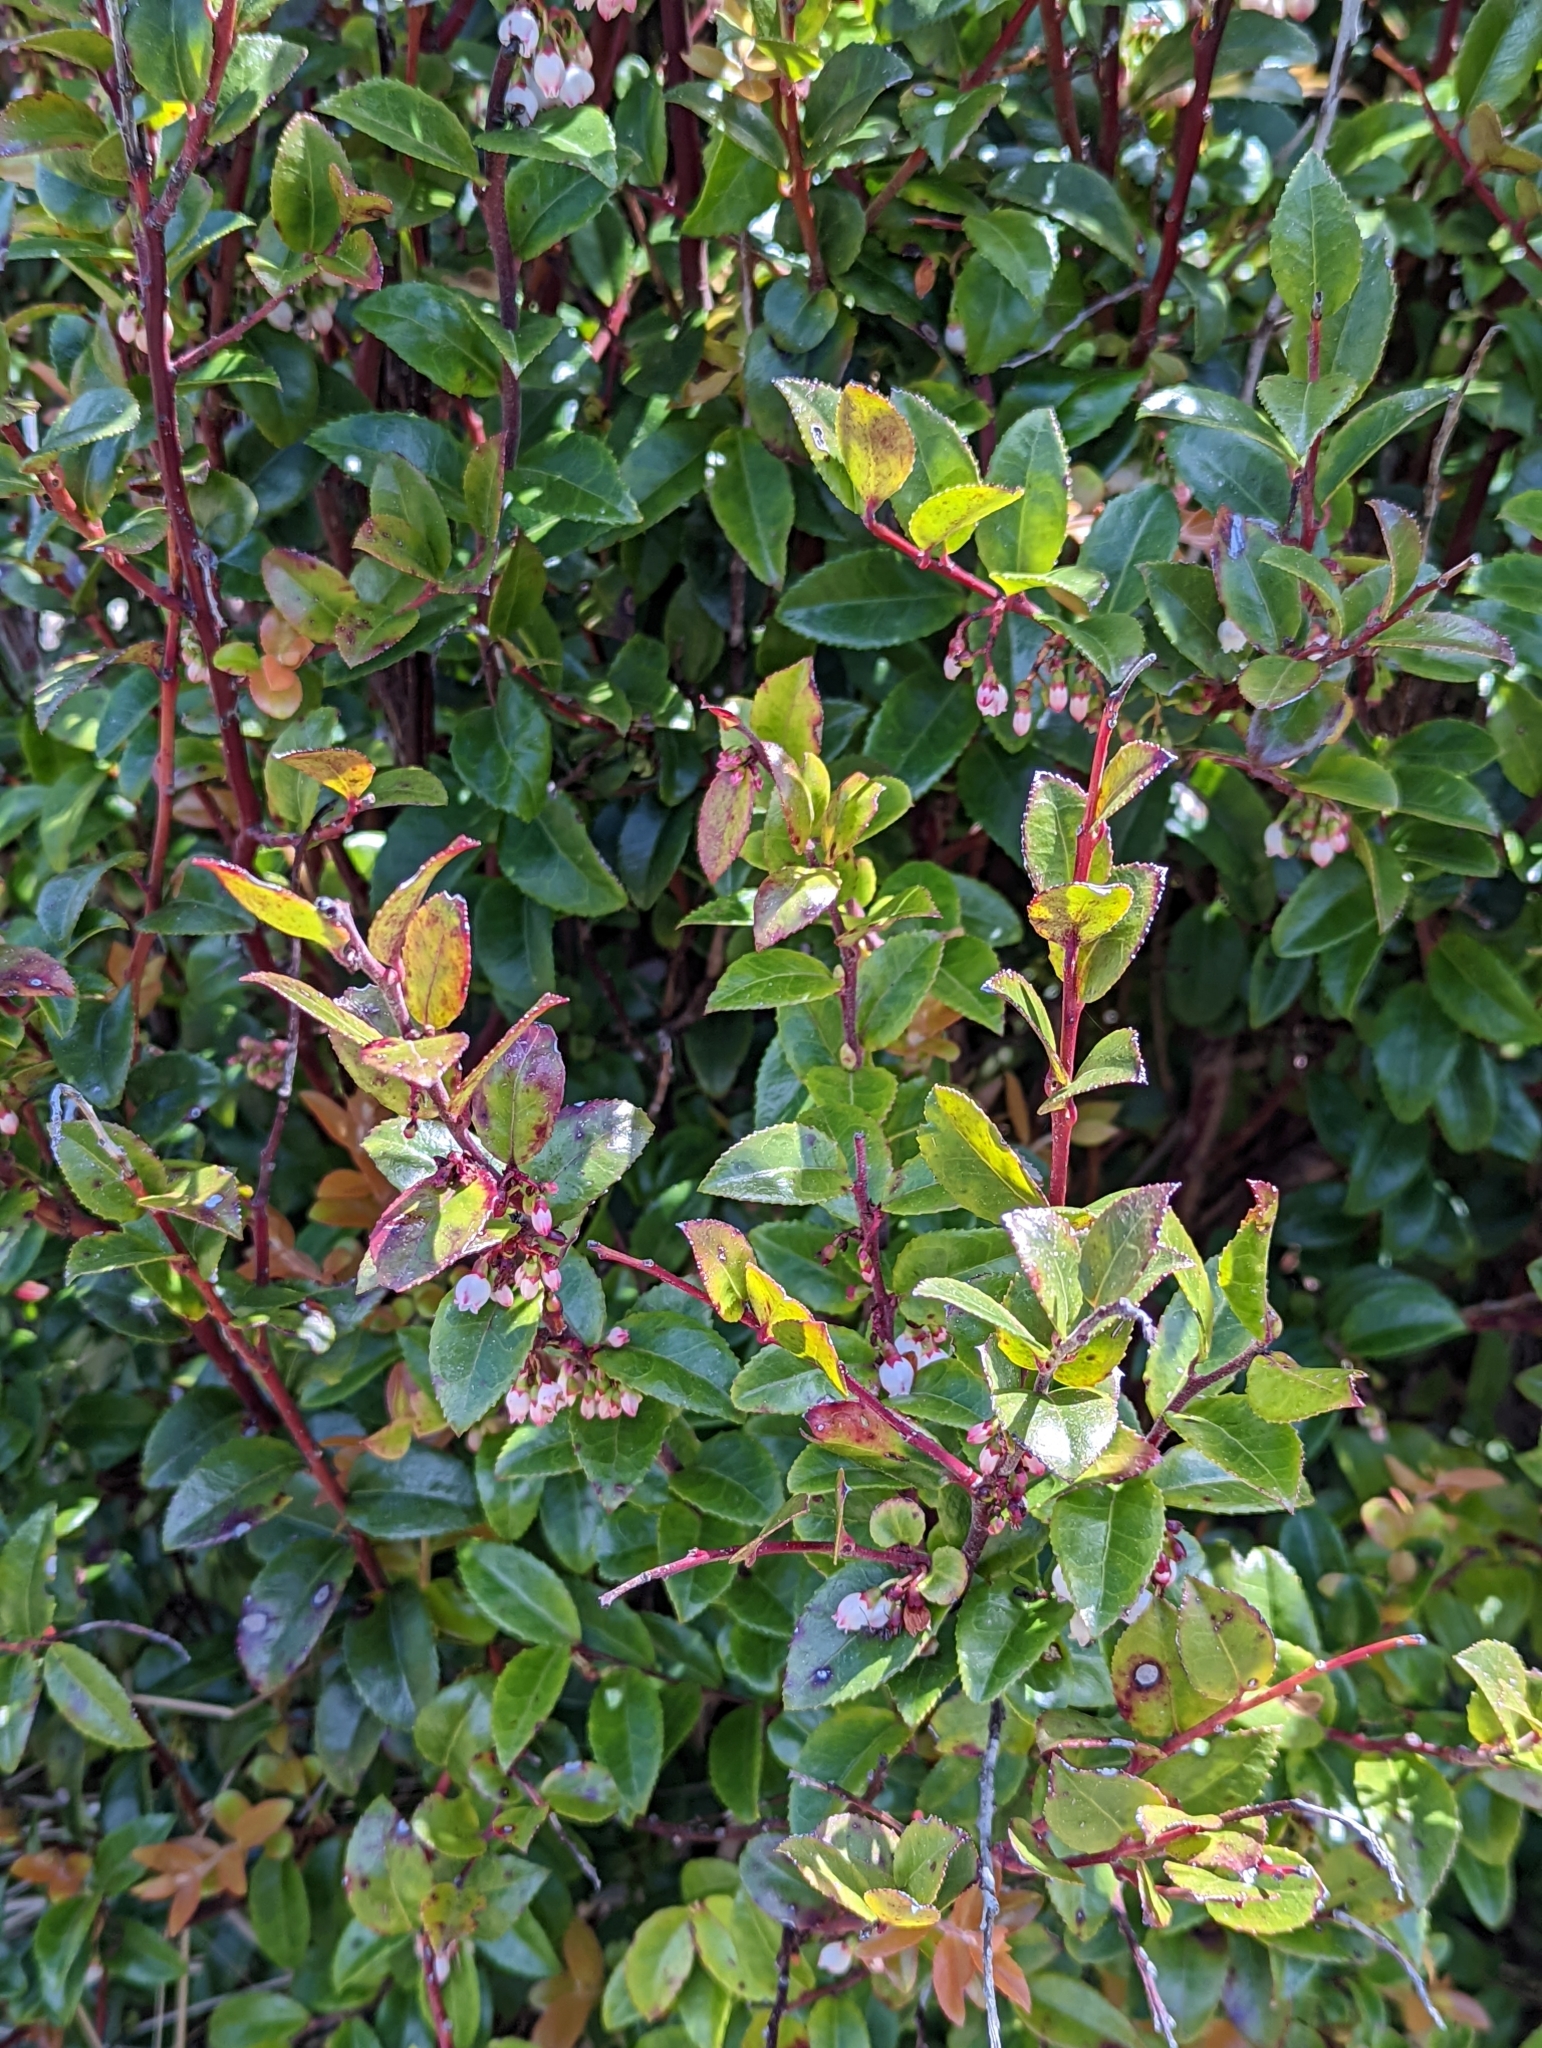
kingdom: Plantae
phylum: Tracheophyta
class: Magnoliopsida
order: Ericales
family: Ericaceae
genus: Vaccinium
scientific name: Vaccinium ovatum
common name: California-huckleberry
